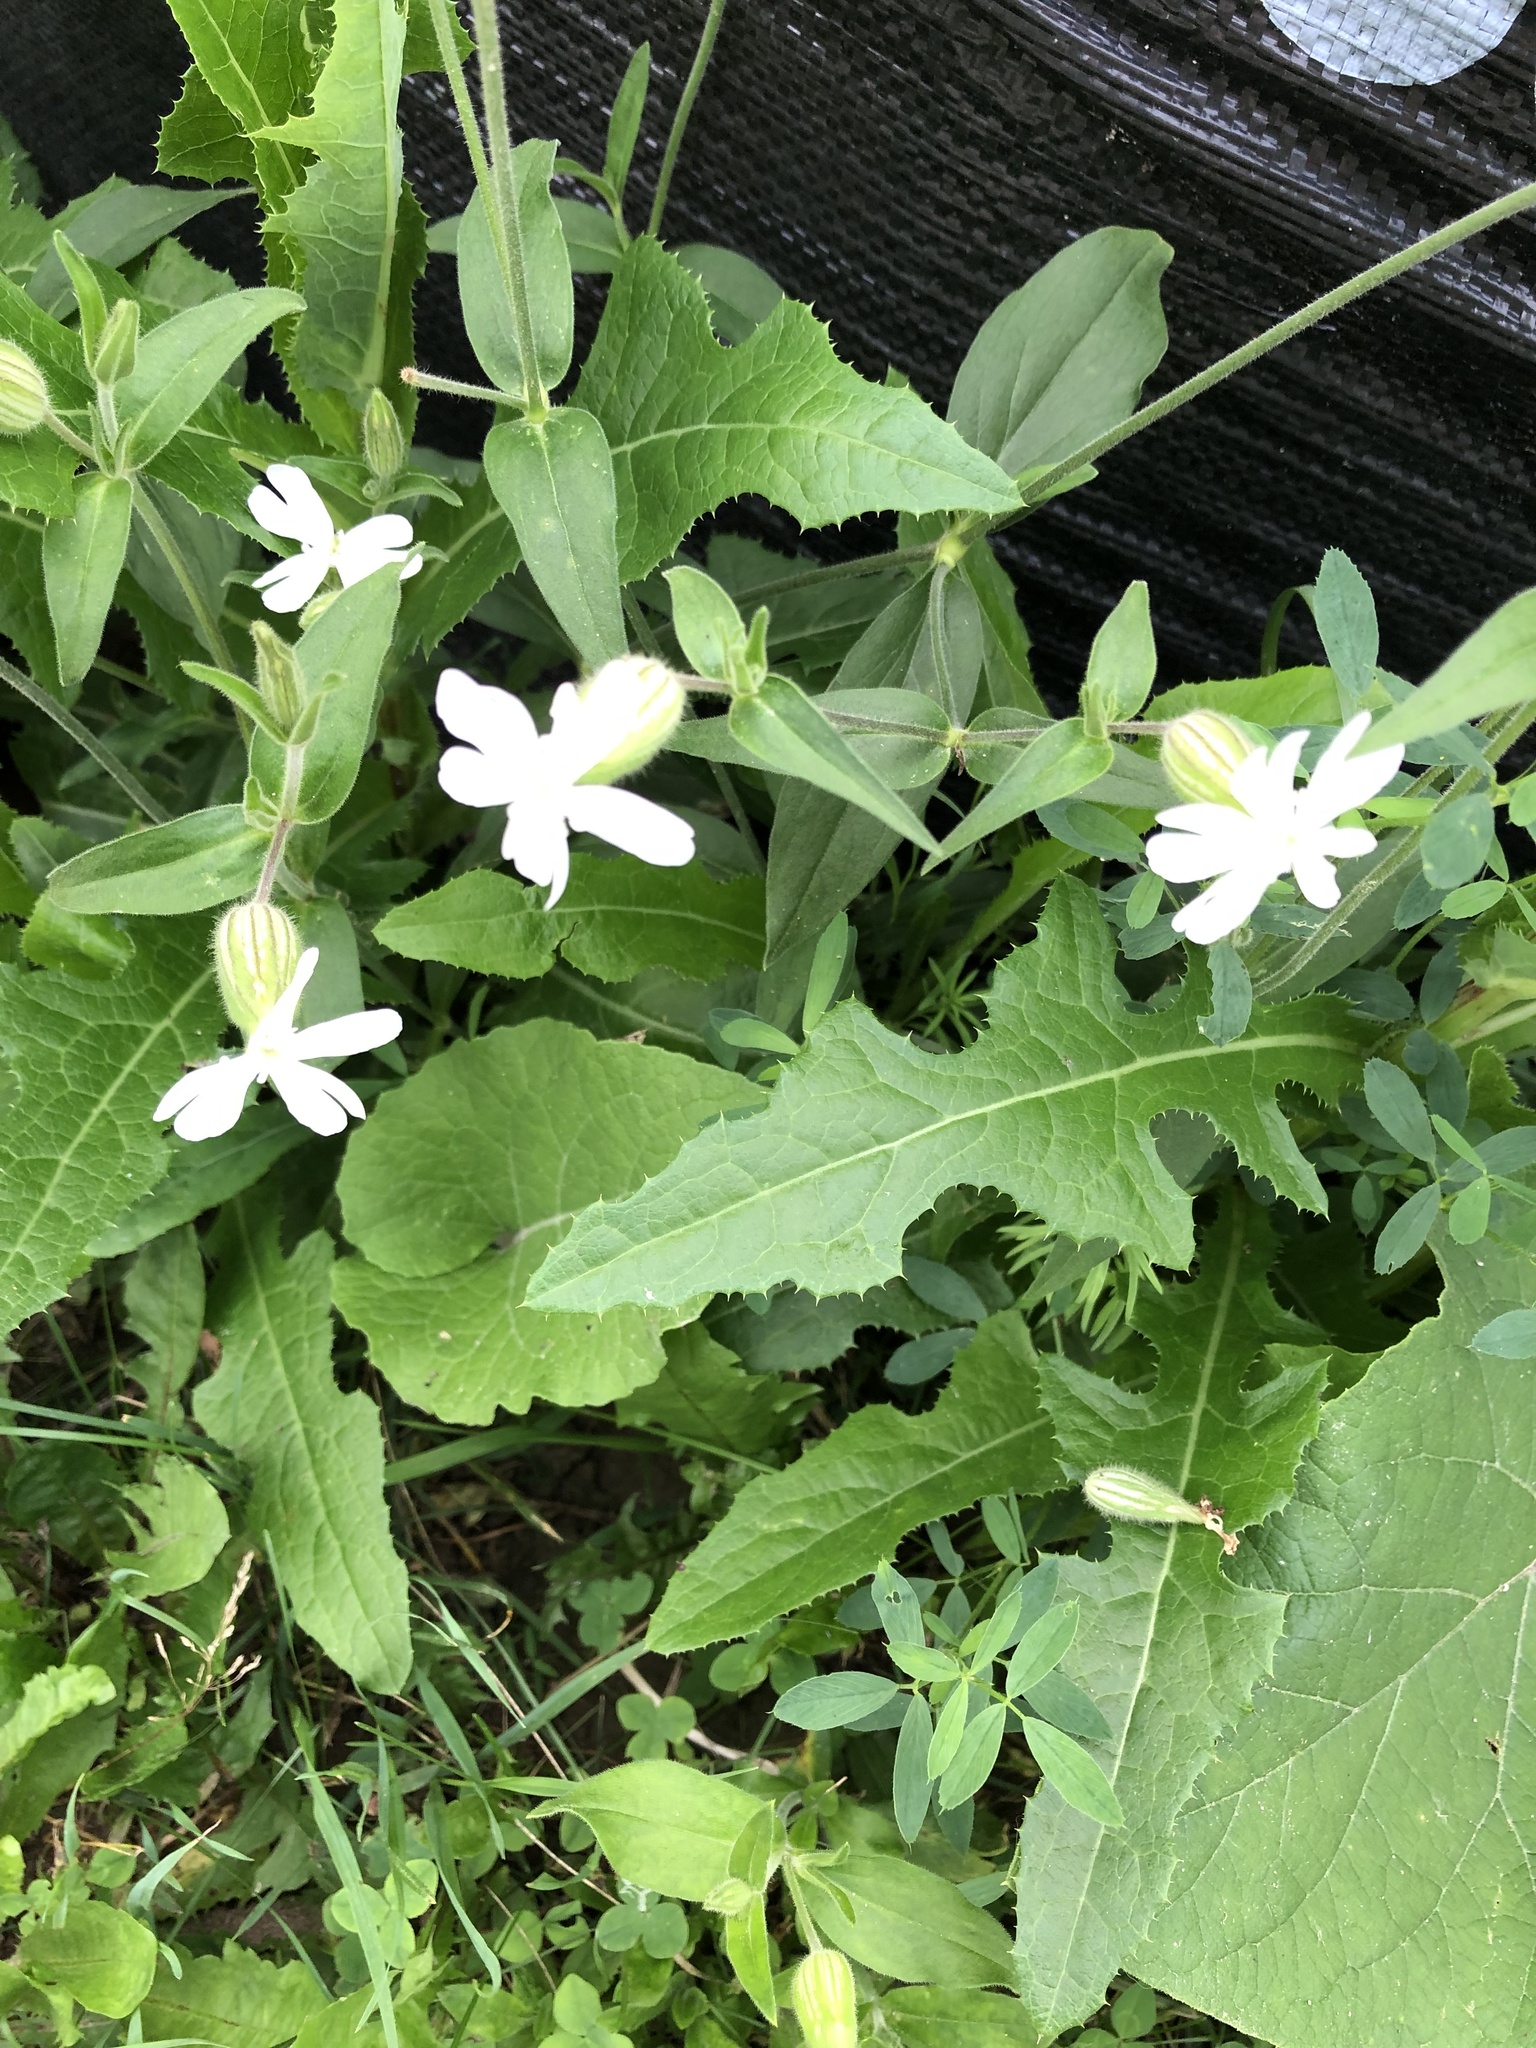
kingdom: Plantae
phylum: Tracheophyta
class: Magnoliopsida
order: Caryophyllales
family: Caryophyllaceae
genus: Silene
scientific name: Silene latifolia
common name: White campion
